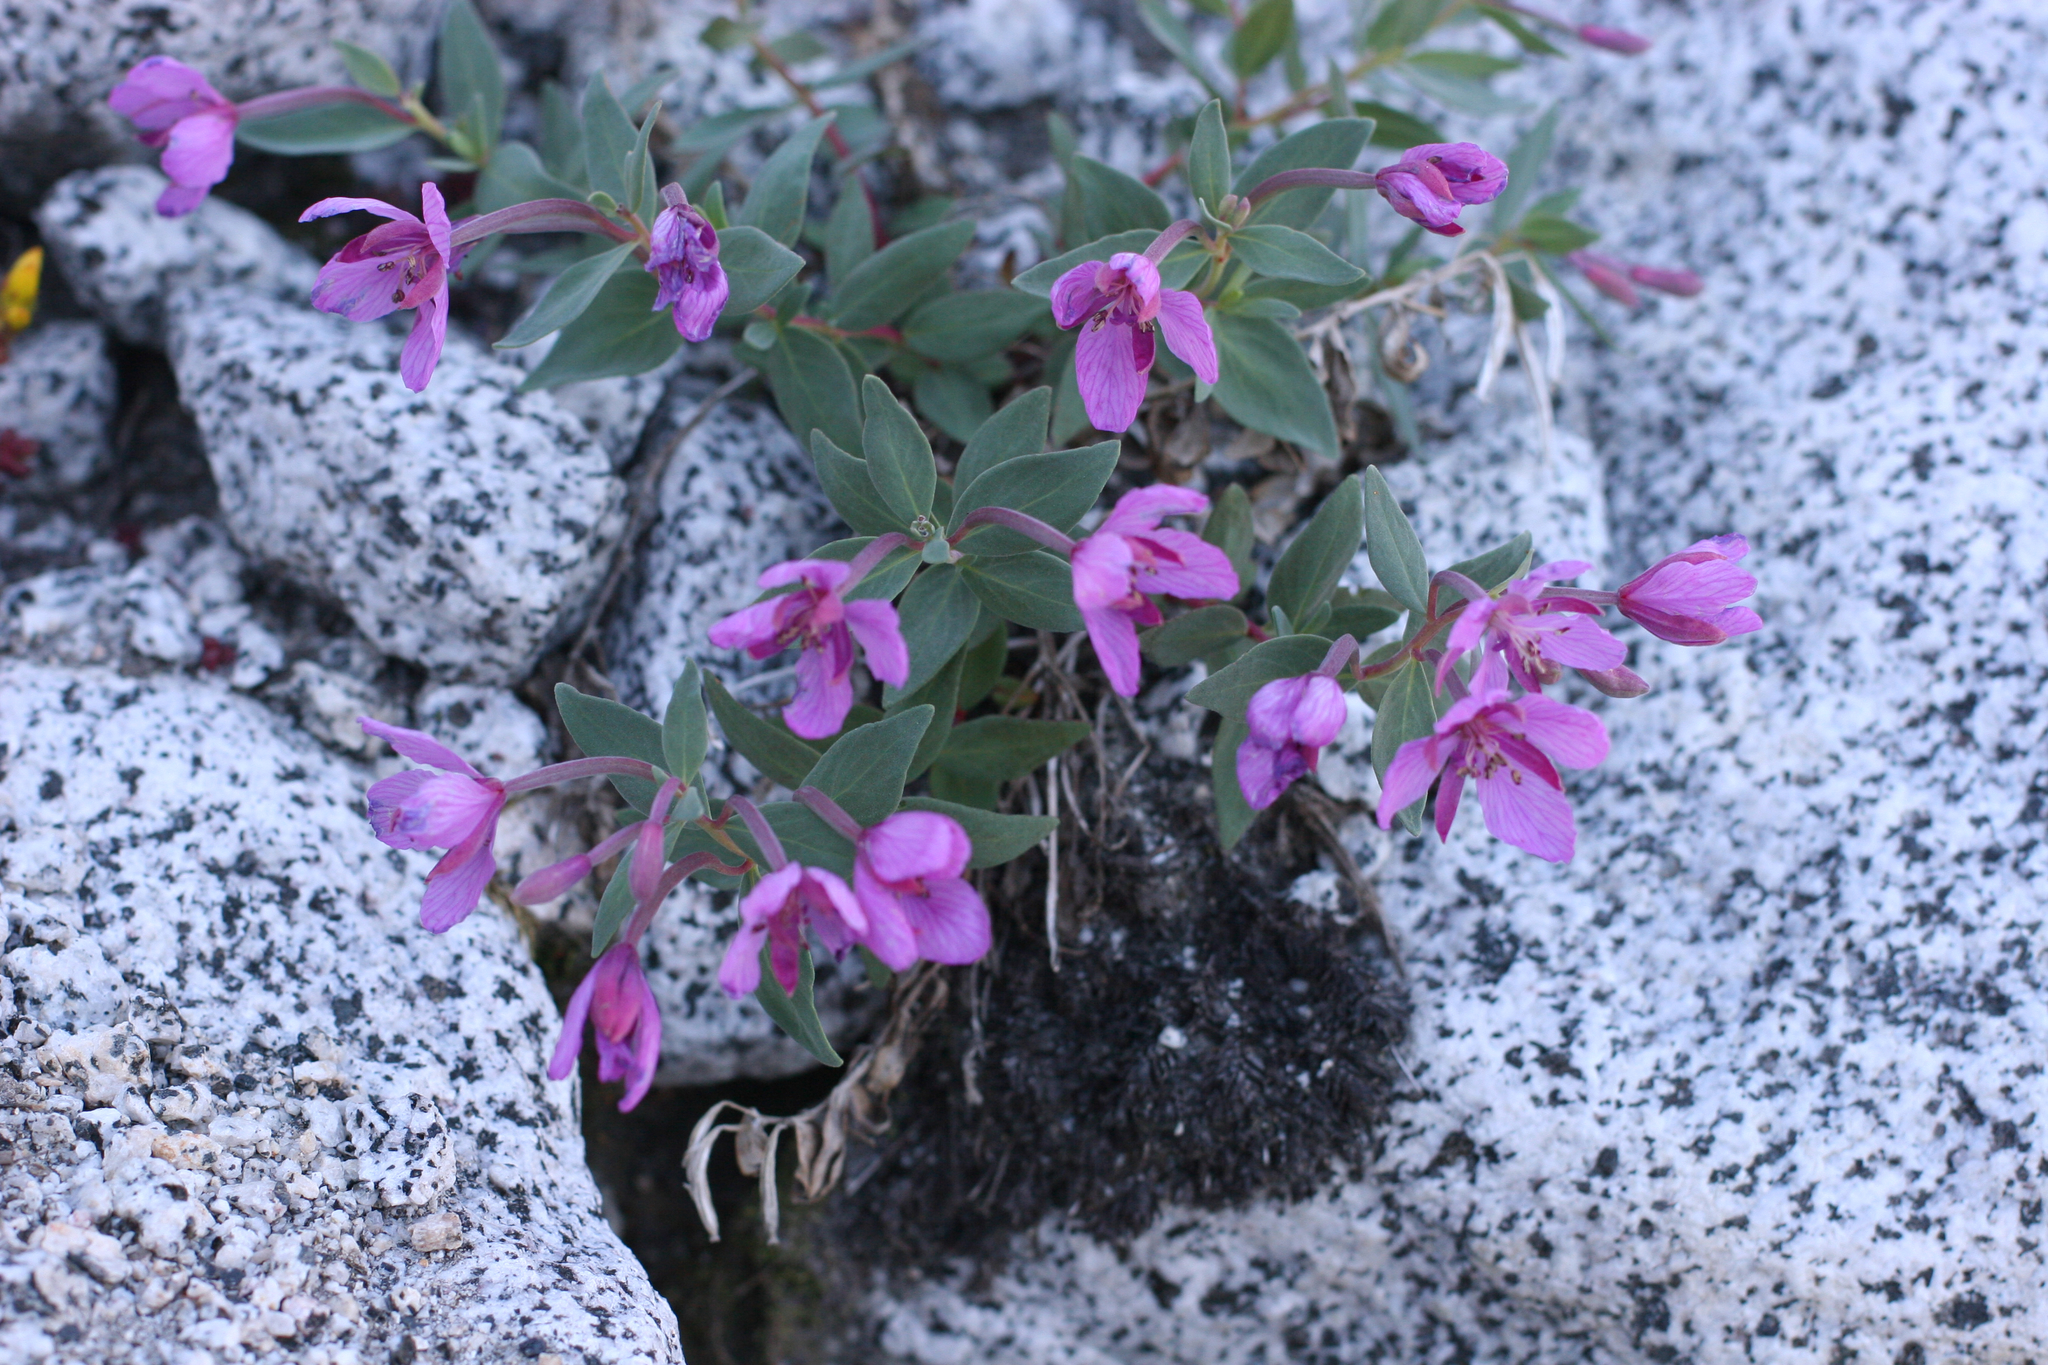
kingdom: Plantae
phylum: Tracheophyta
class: Magnoliopsida
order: Myrtales
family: Onagraceae
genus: Chamaenerion
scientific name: Chamaenerion latifolium
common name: Dwarf fireweed
